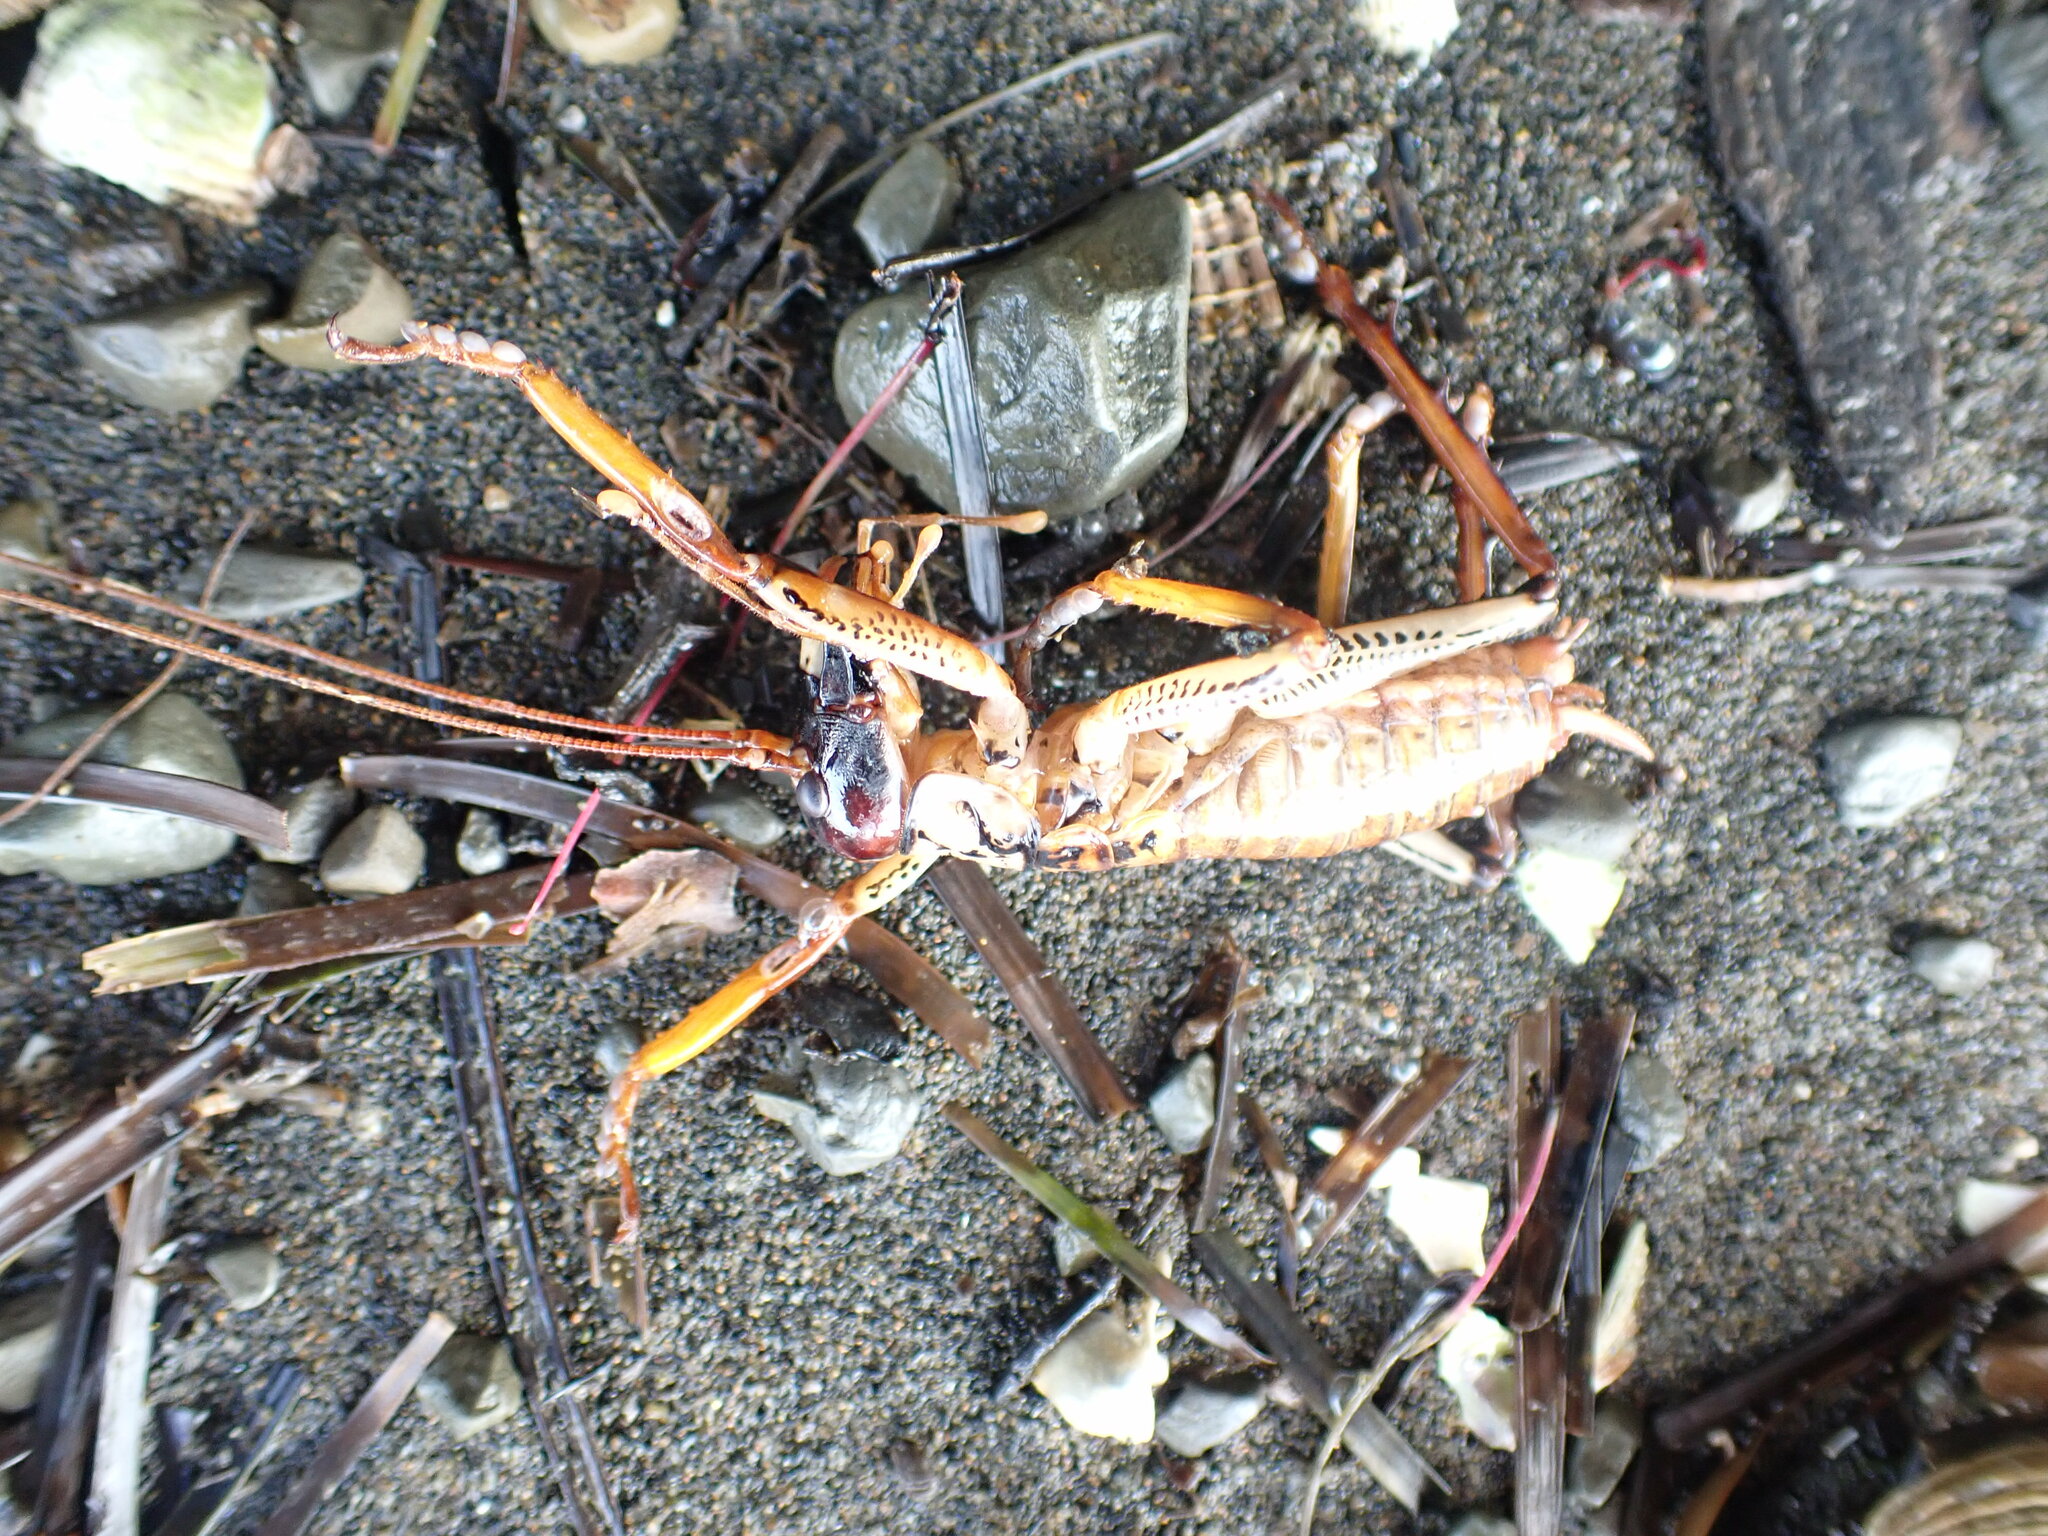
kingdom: Animalia
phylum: Arthropoda
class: Insecta
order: Orthoptera
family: Anostostomatidae
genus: Hemideina
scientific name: Hemideina thoracica
